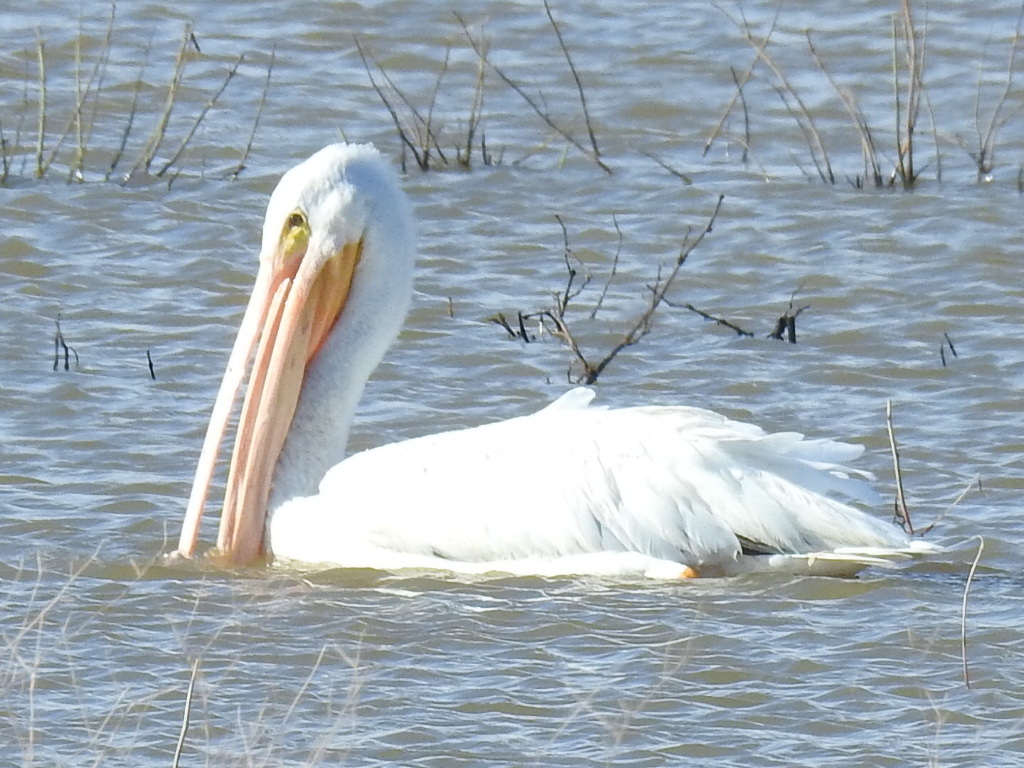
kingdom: Animalia
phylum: Chordata
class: Aves
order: Pelecaniformes
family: Pelecanidae
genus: Pelecanus
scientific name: Pelecanus erythrorhynchos
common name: American white pelican
